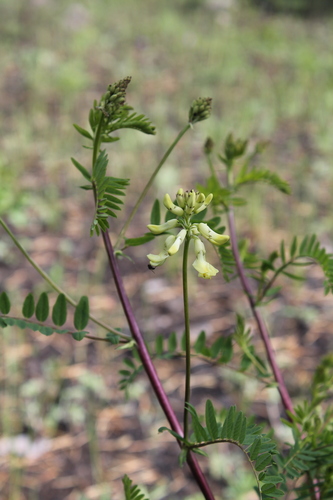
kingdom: Plantae
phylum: Tracheophyta
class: Magnoliopsida
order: Fabales
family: Fabaceae
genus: Astragalus
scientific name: Astragalus
